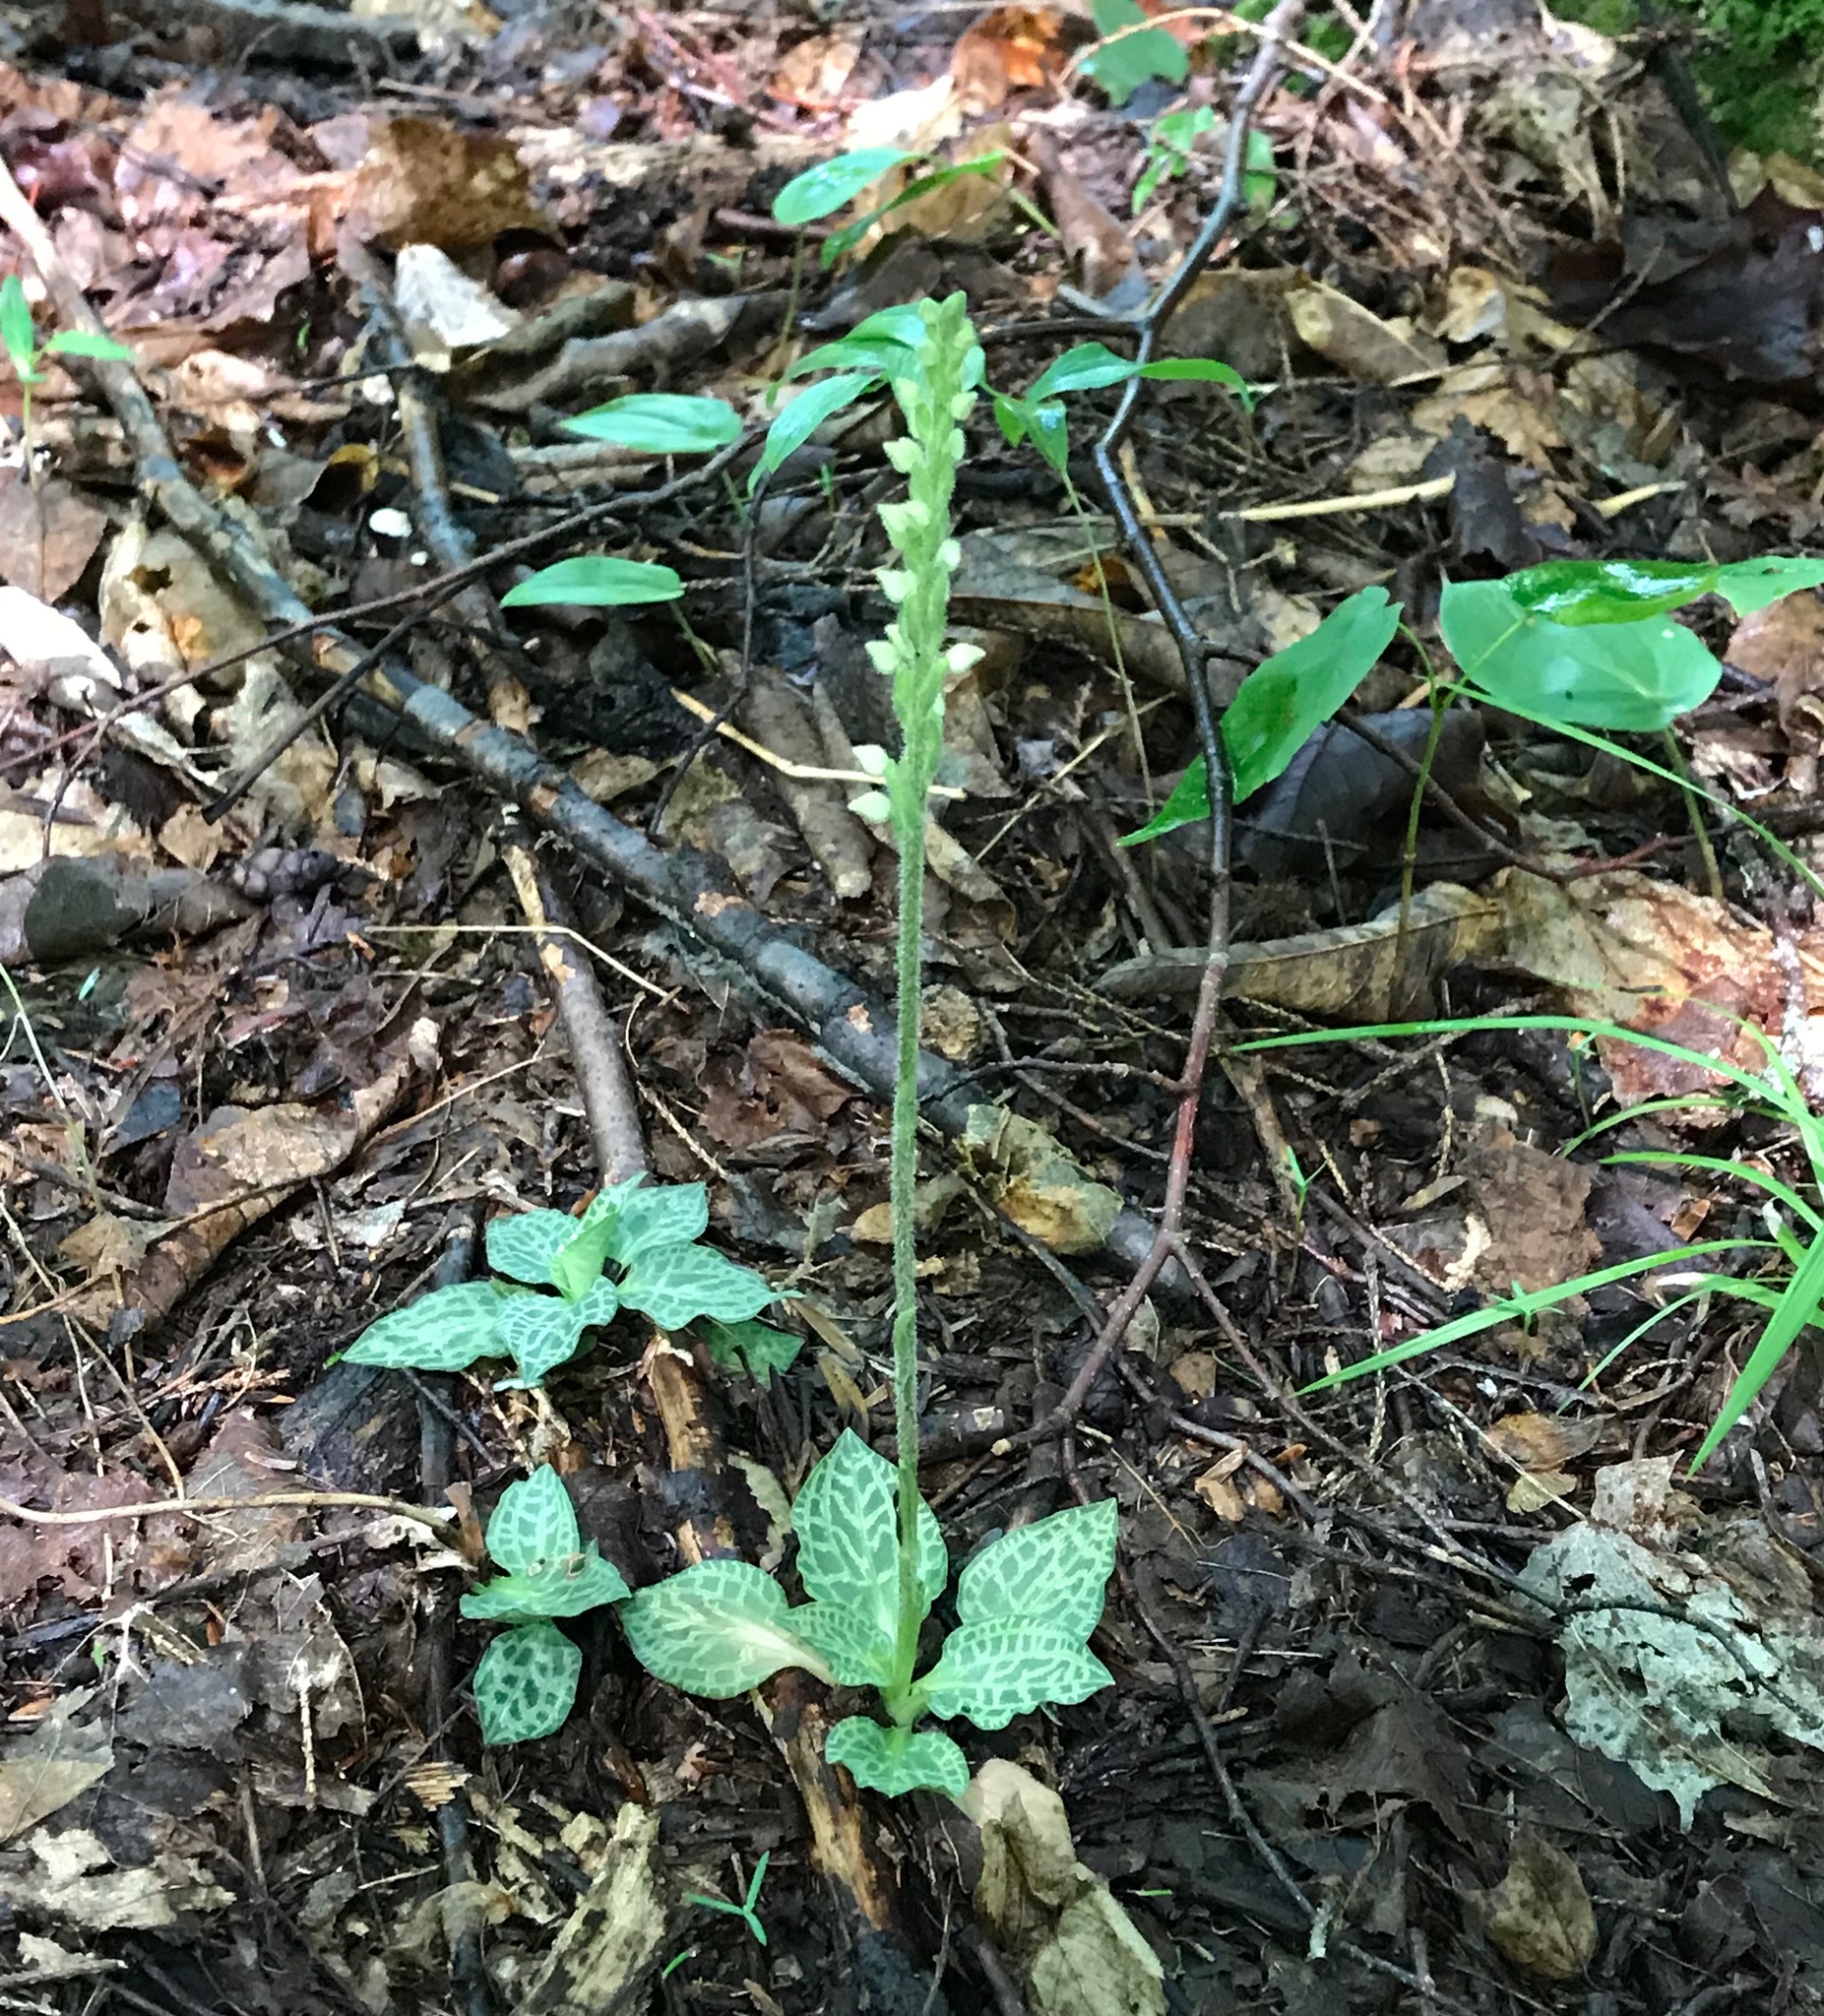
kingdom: Plantae
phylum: Tracheophyta
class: Liliopsida
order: Asparagales
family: Orchidaceae
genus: Goodyera
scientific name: Goodyera tesselata
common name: Checkered rattlesnake-plantain
